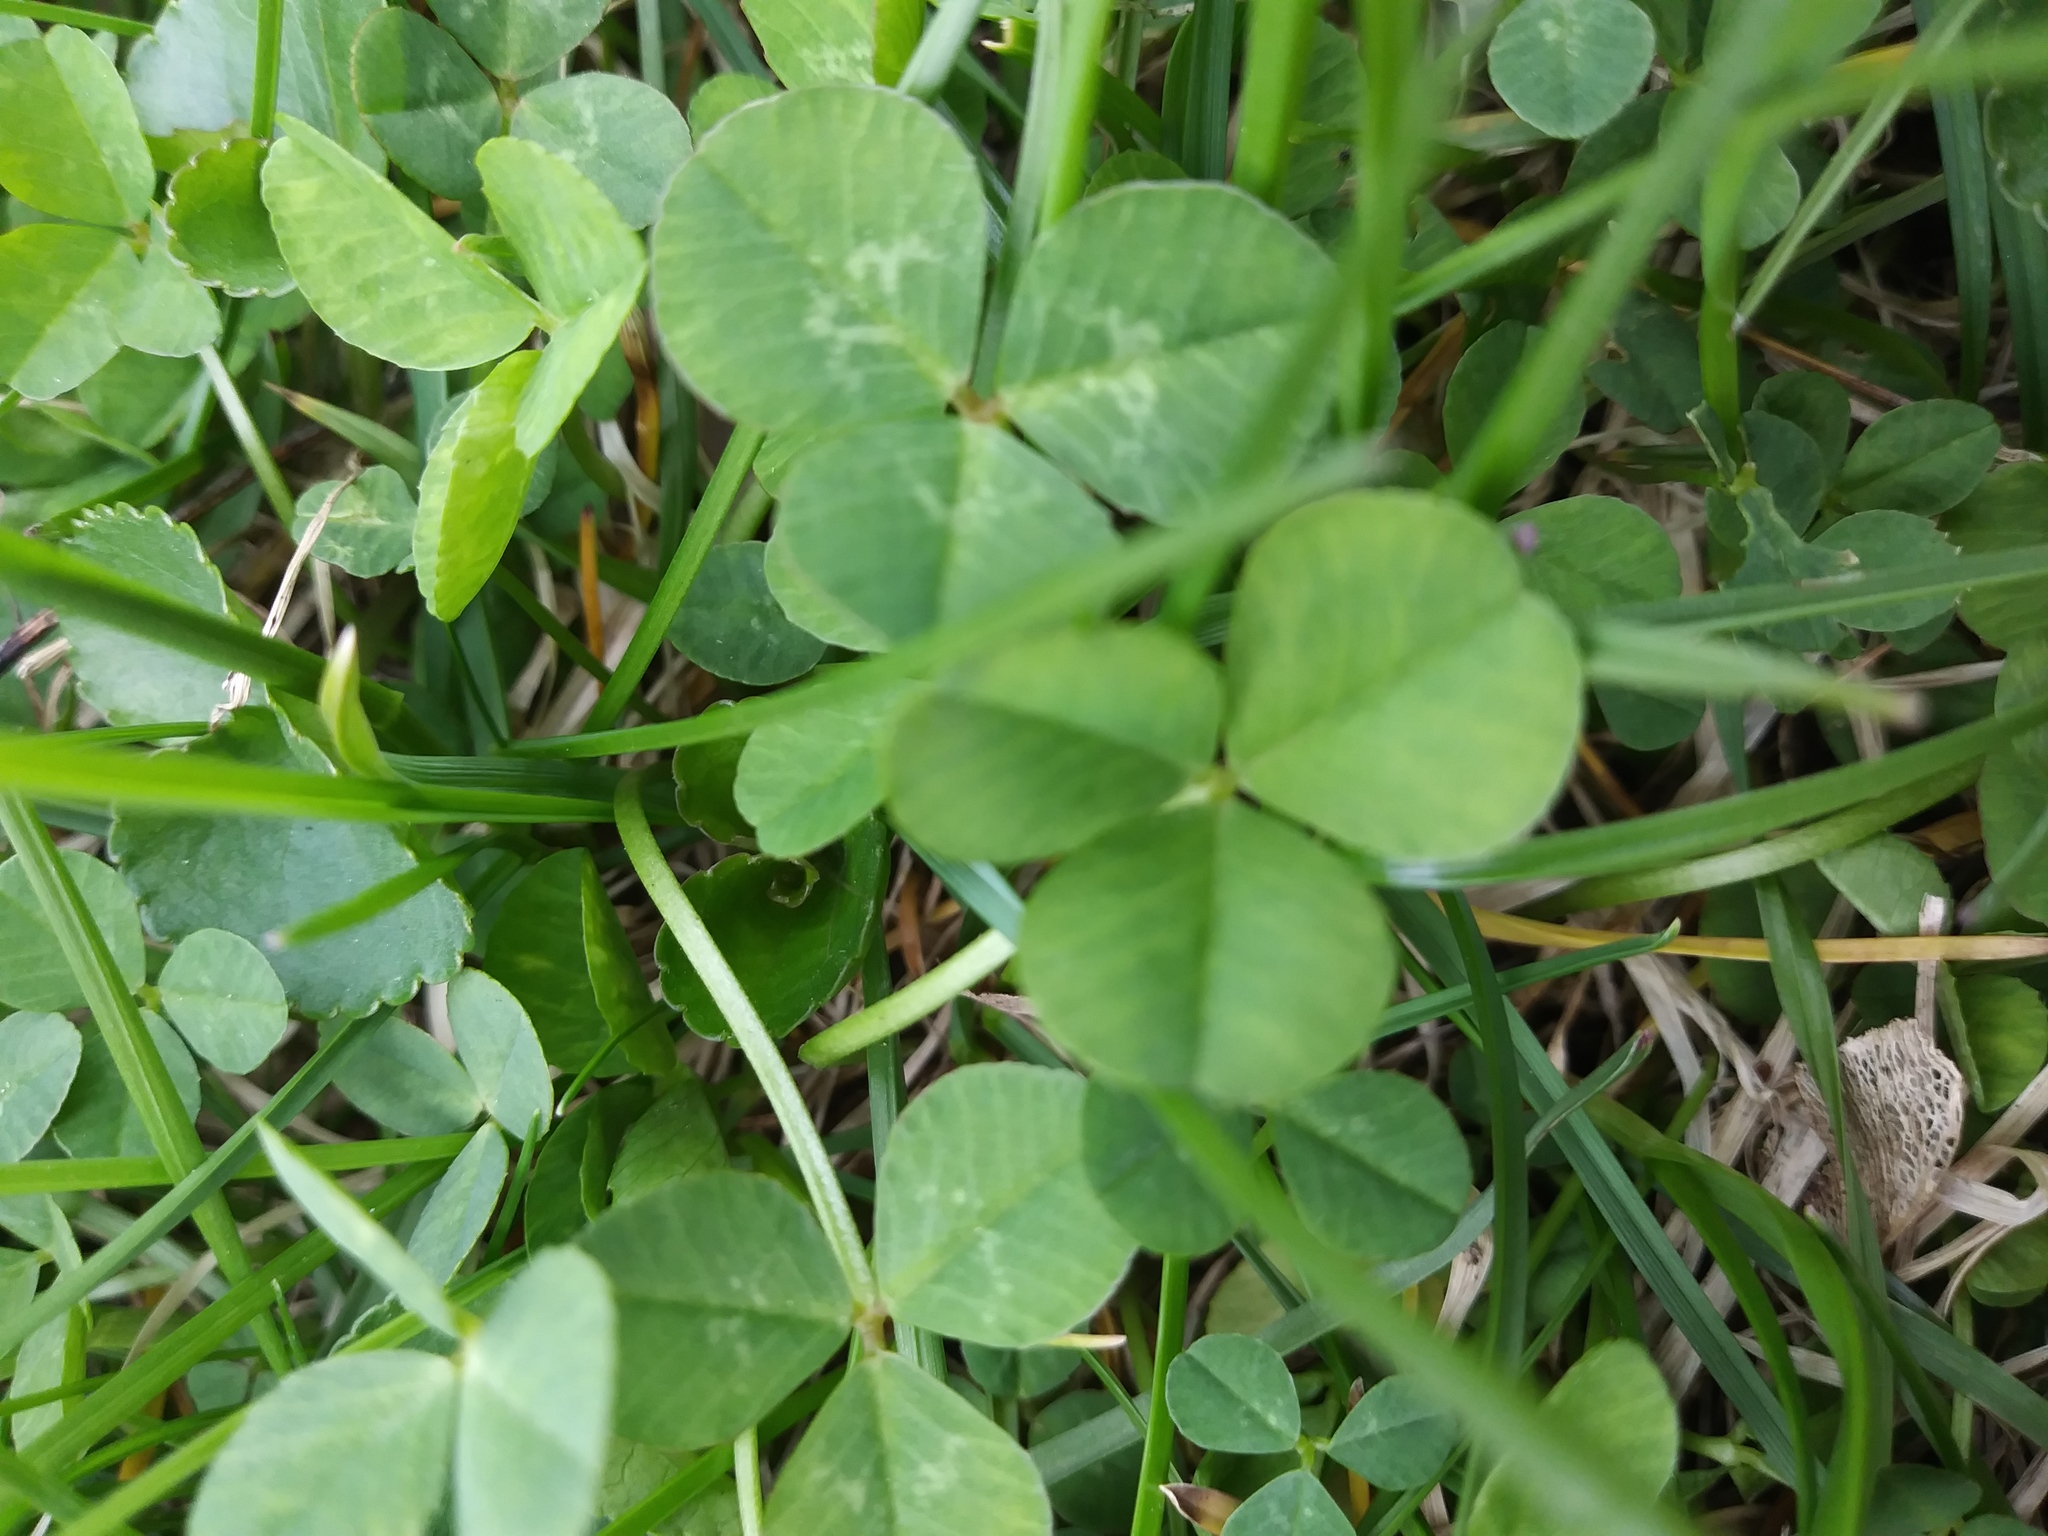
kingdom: Plantae
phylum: Tracheophyta
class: Magnoliopsida
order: Fabales
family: Fabaceae
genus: Trifolium
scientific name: Trifolium repens
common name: White clover
